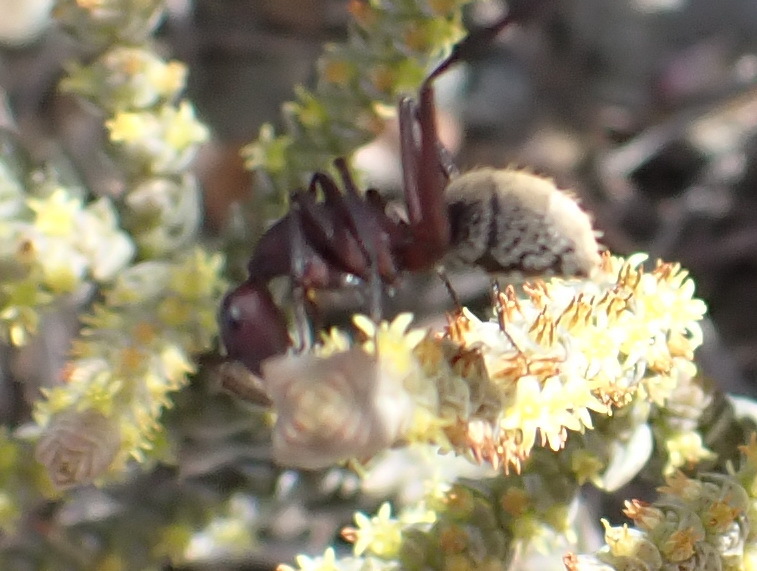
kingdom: Animalia
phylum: Arthropoda
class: Insecta
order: Hymenoptera
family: Formicidae
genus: Camponotus
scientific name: Camponotus storeatus
